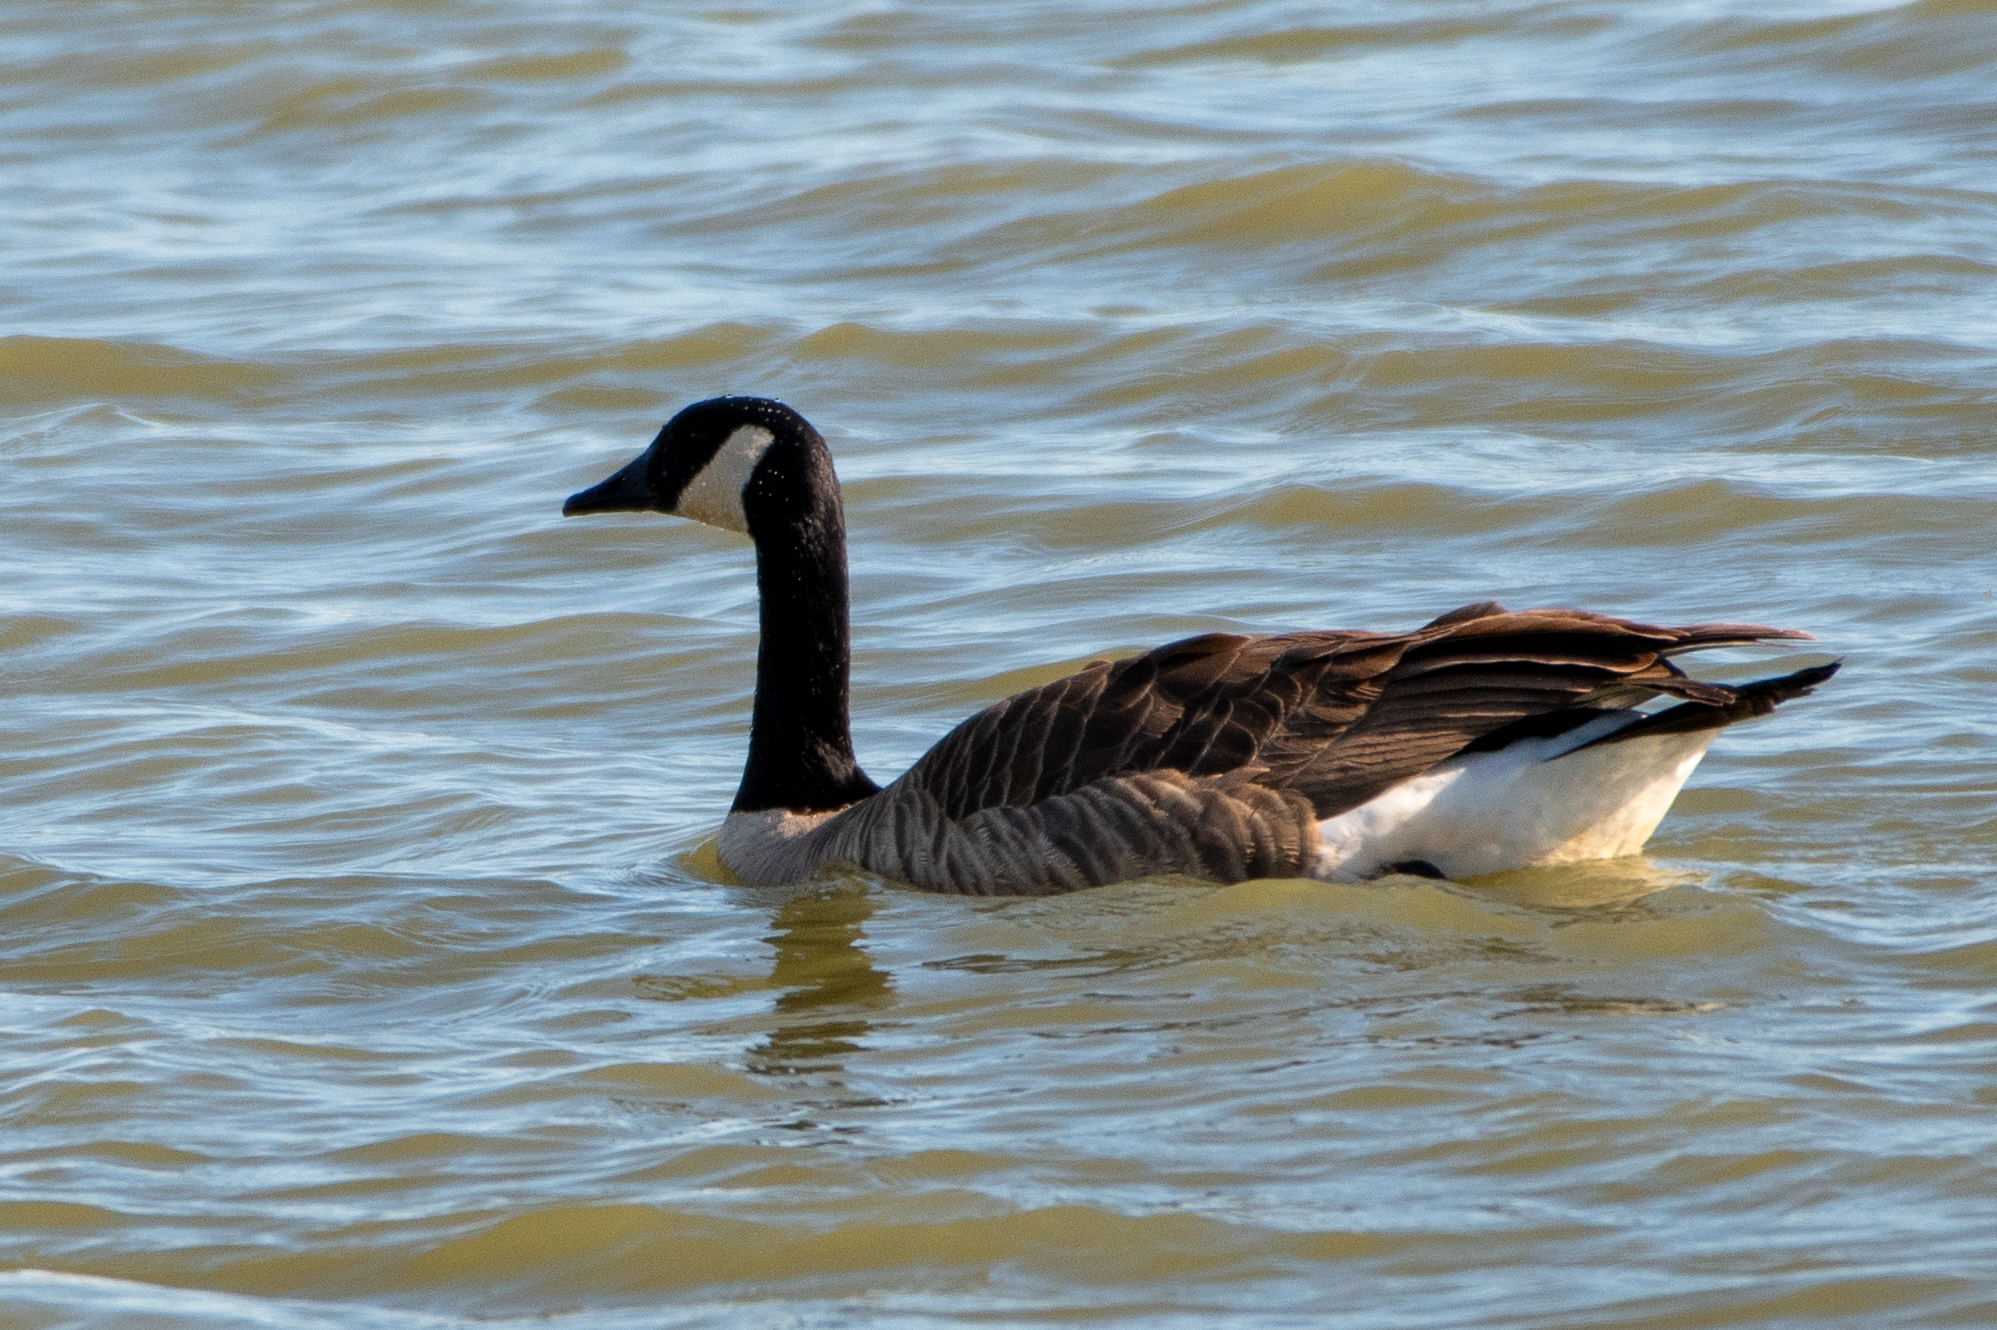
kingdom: Animalia
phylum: Chordata
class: Aves
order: Anseriformes
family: Anatidae
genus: Branta
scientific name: Branta canadensis
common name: Canada goose
